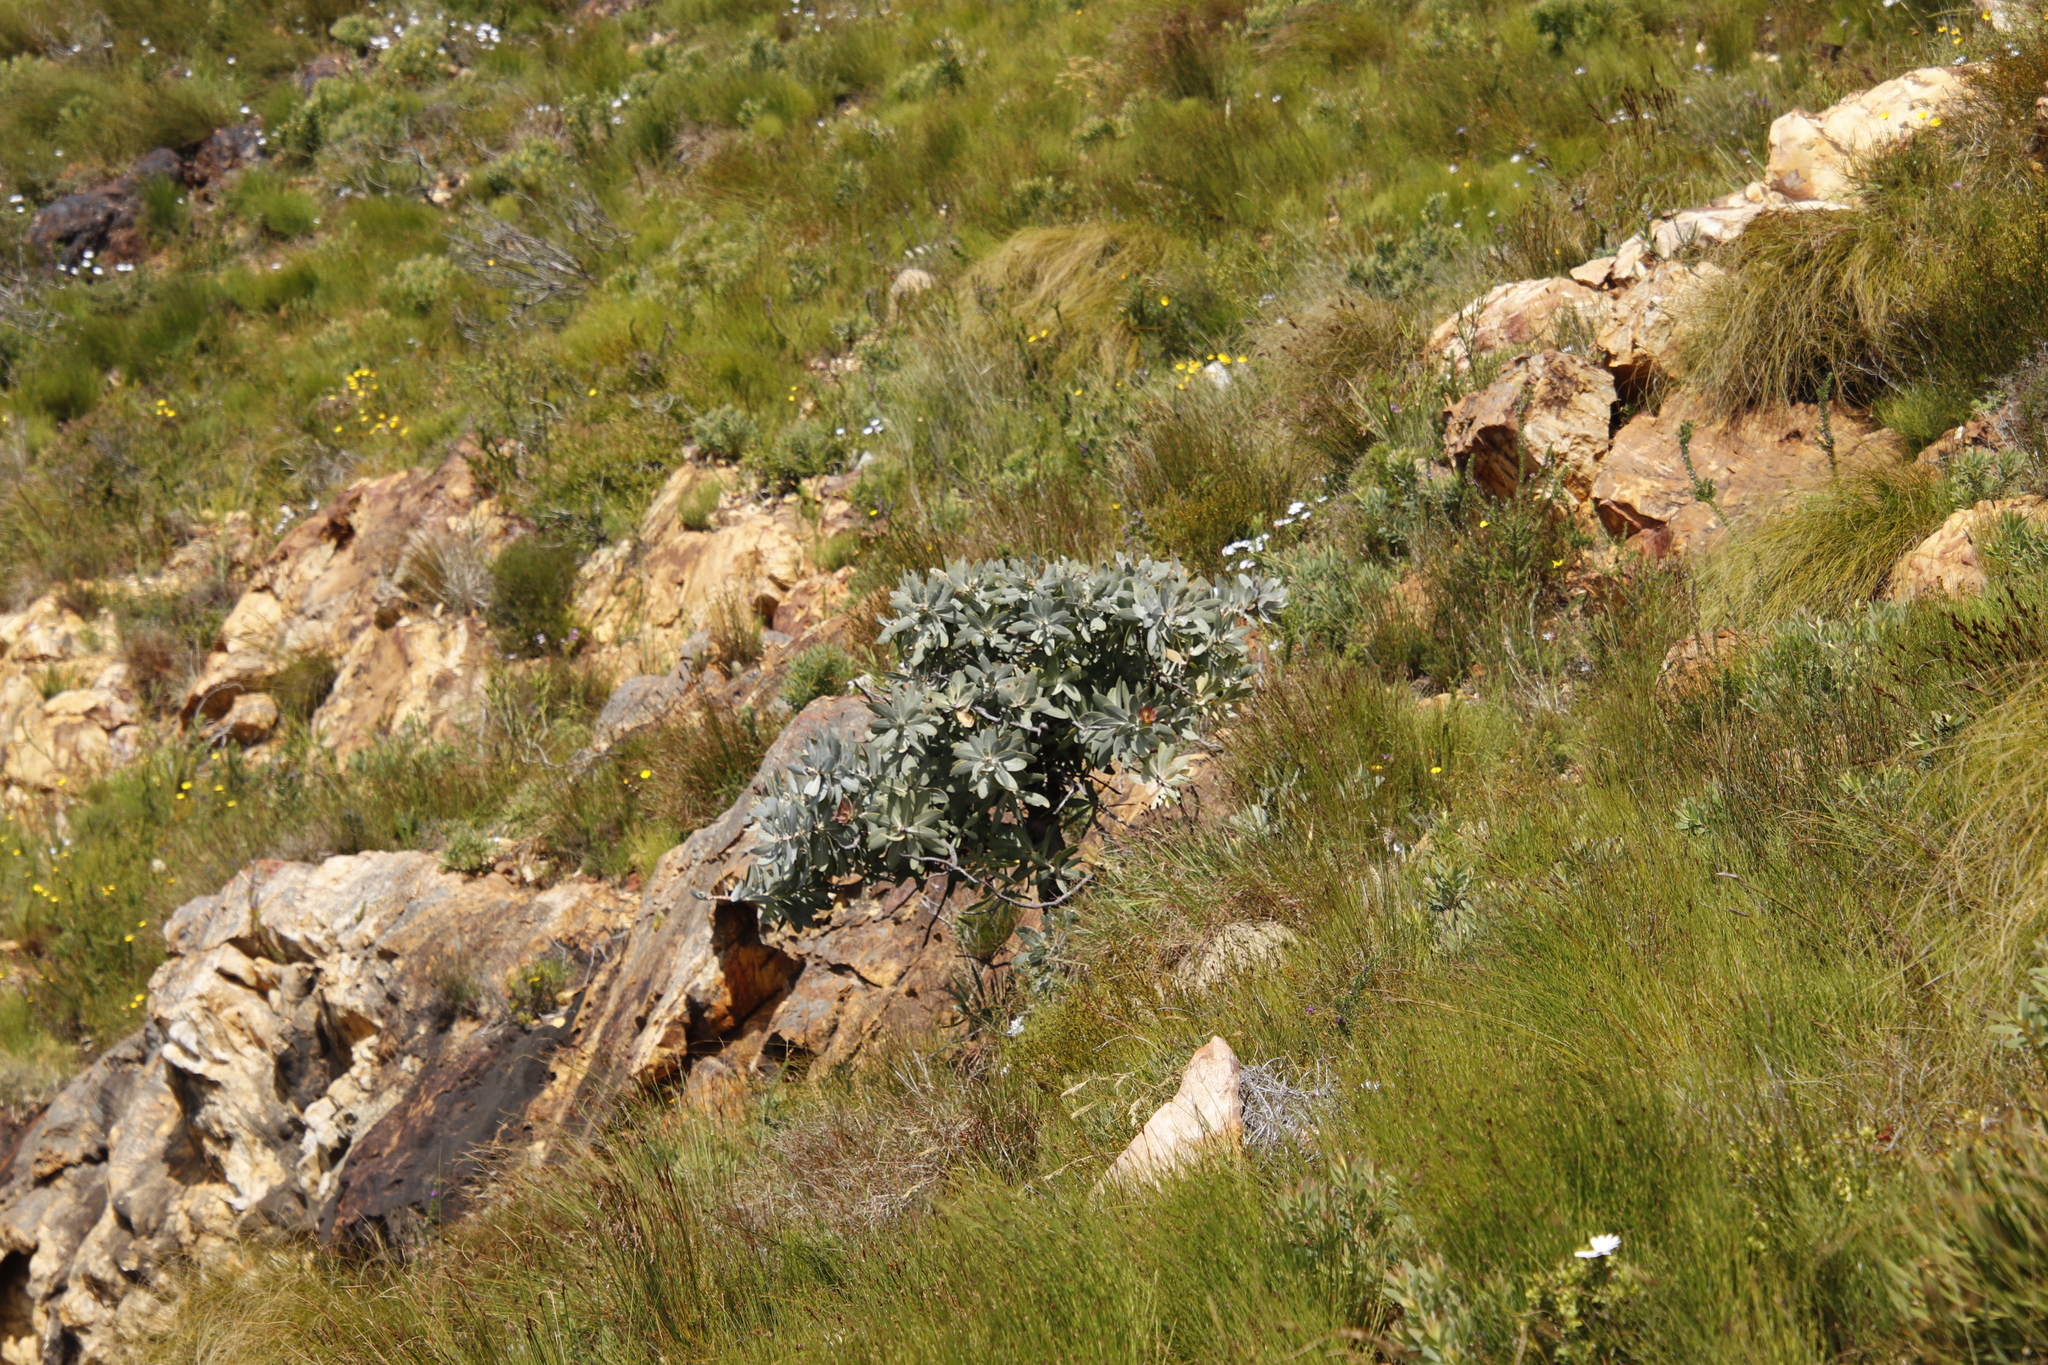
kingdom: Plantae
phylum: Tracheophyta
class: Magnoliopsida
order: Proteales
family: Proteaceae
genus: Protea
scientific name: Protea nitida
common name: Tree protea
